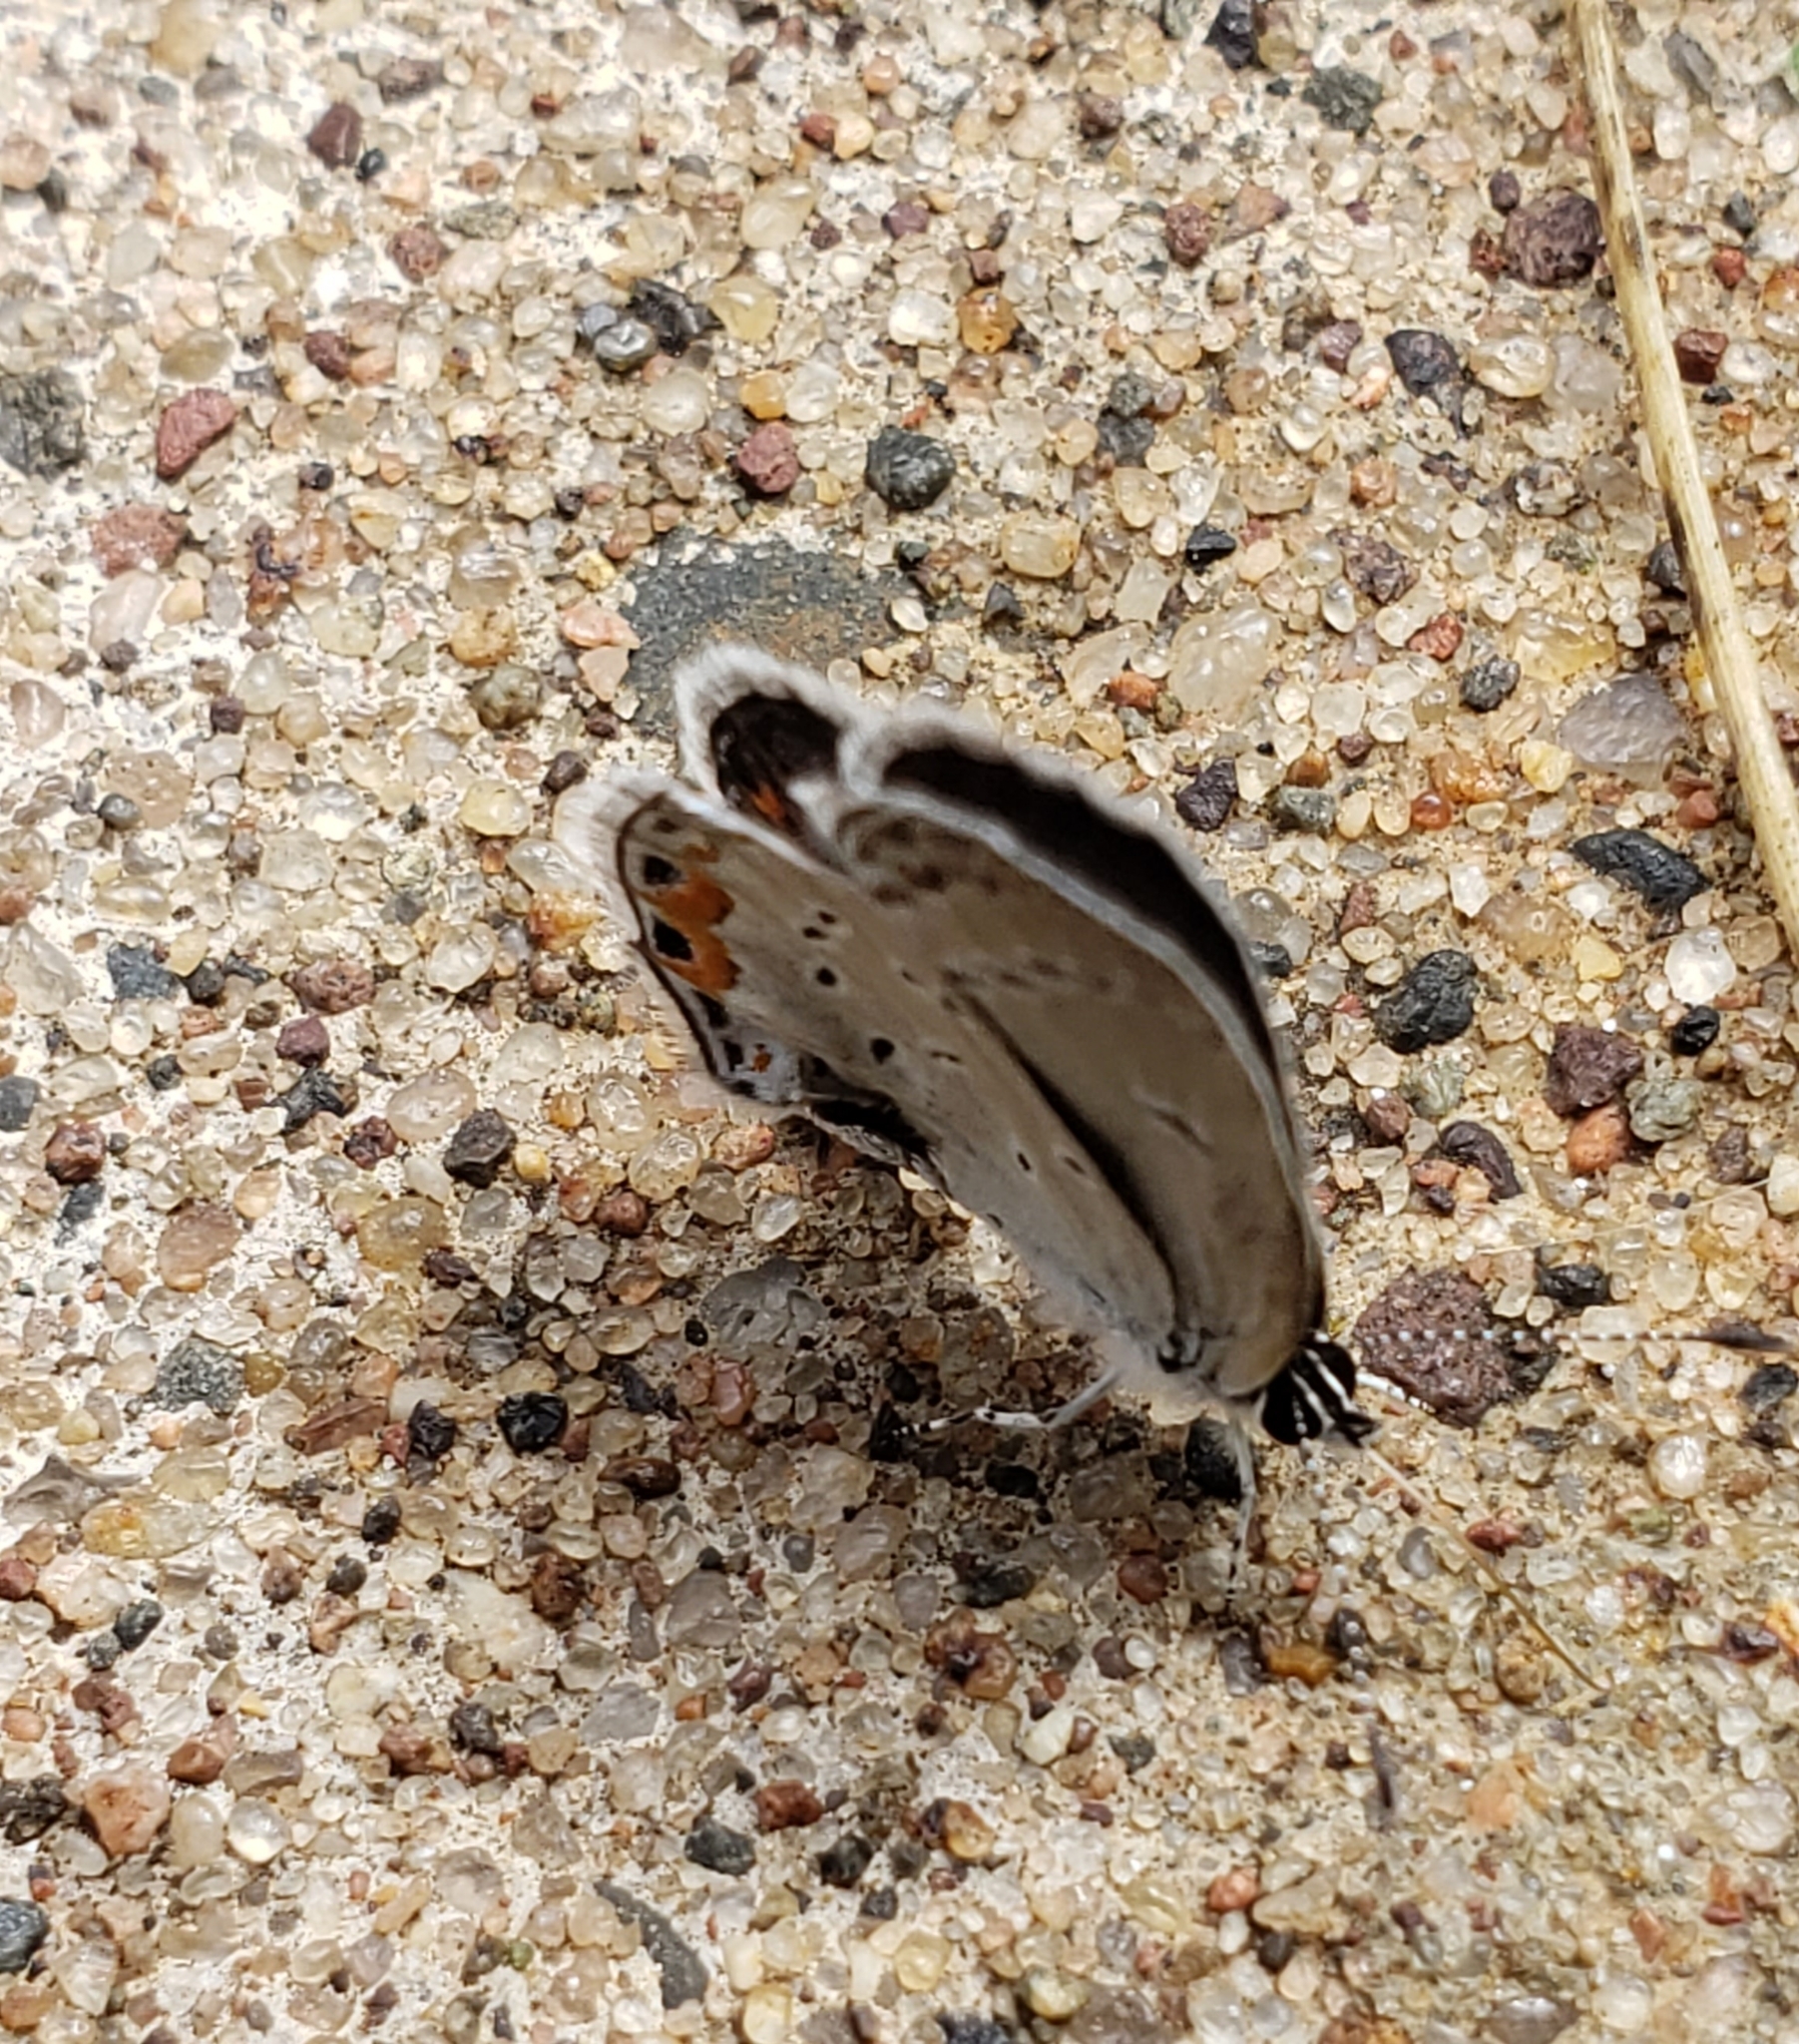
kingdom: Animalia
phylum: Arthropoda
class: Insecta
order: Lepidoptera
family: Lycaenidae
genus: Elkalyce
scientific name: Elkalyce comyntas
